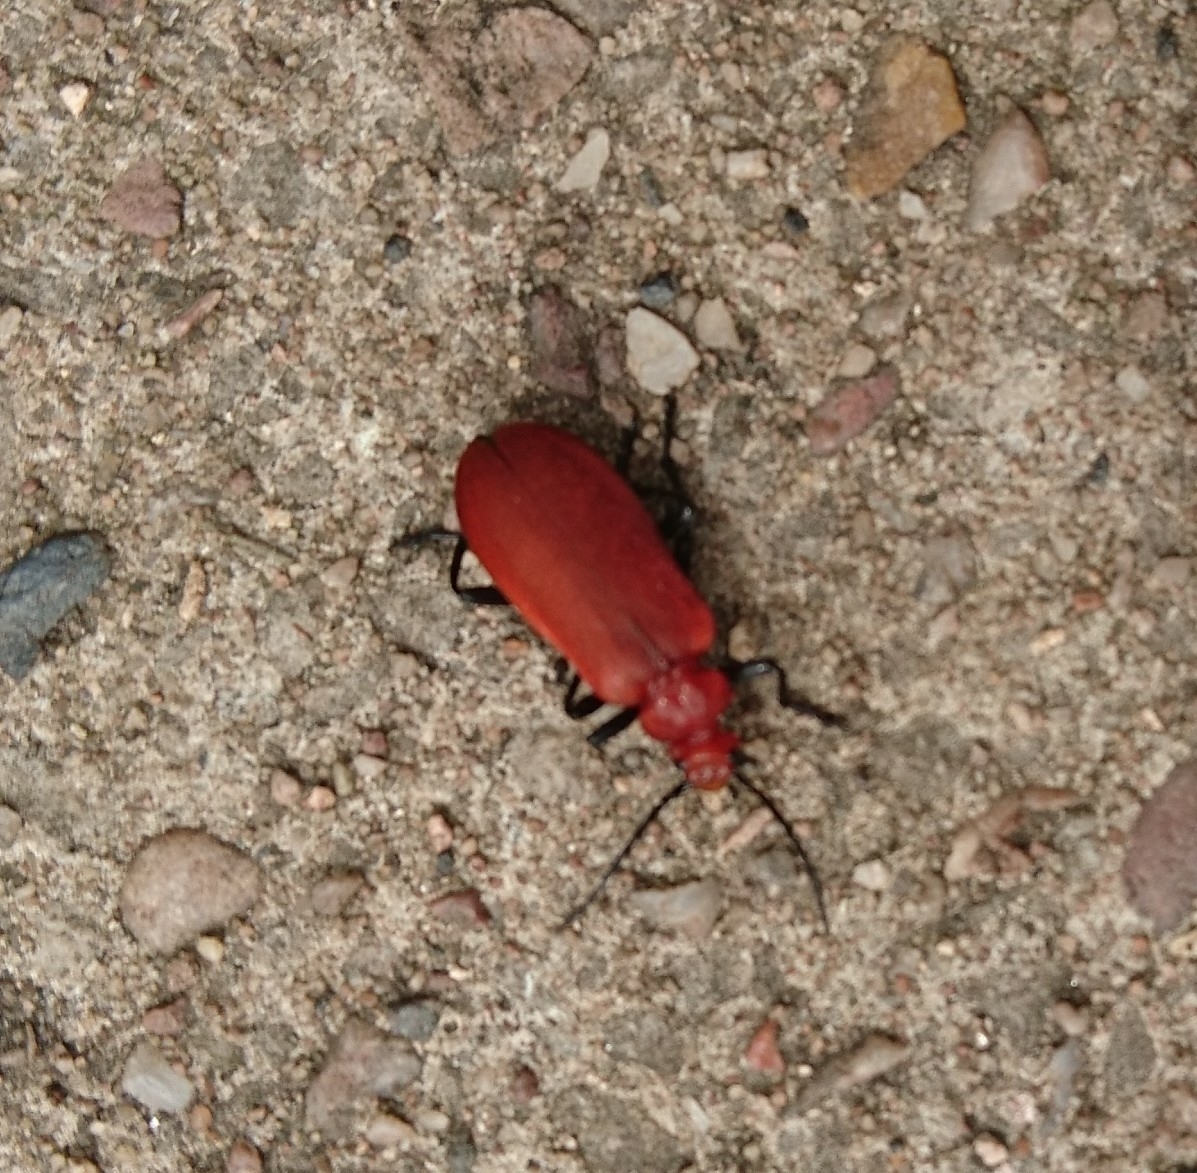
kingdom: Animalia
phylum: Arthropoda
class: Insecta
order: Coleoptera
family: Pyrochroidae
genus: Pyrochroa
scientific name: Pyrochroa serraticornis
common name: Red-headed cardinal beetle
